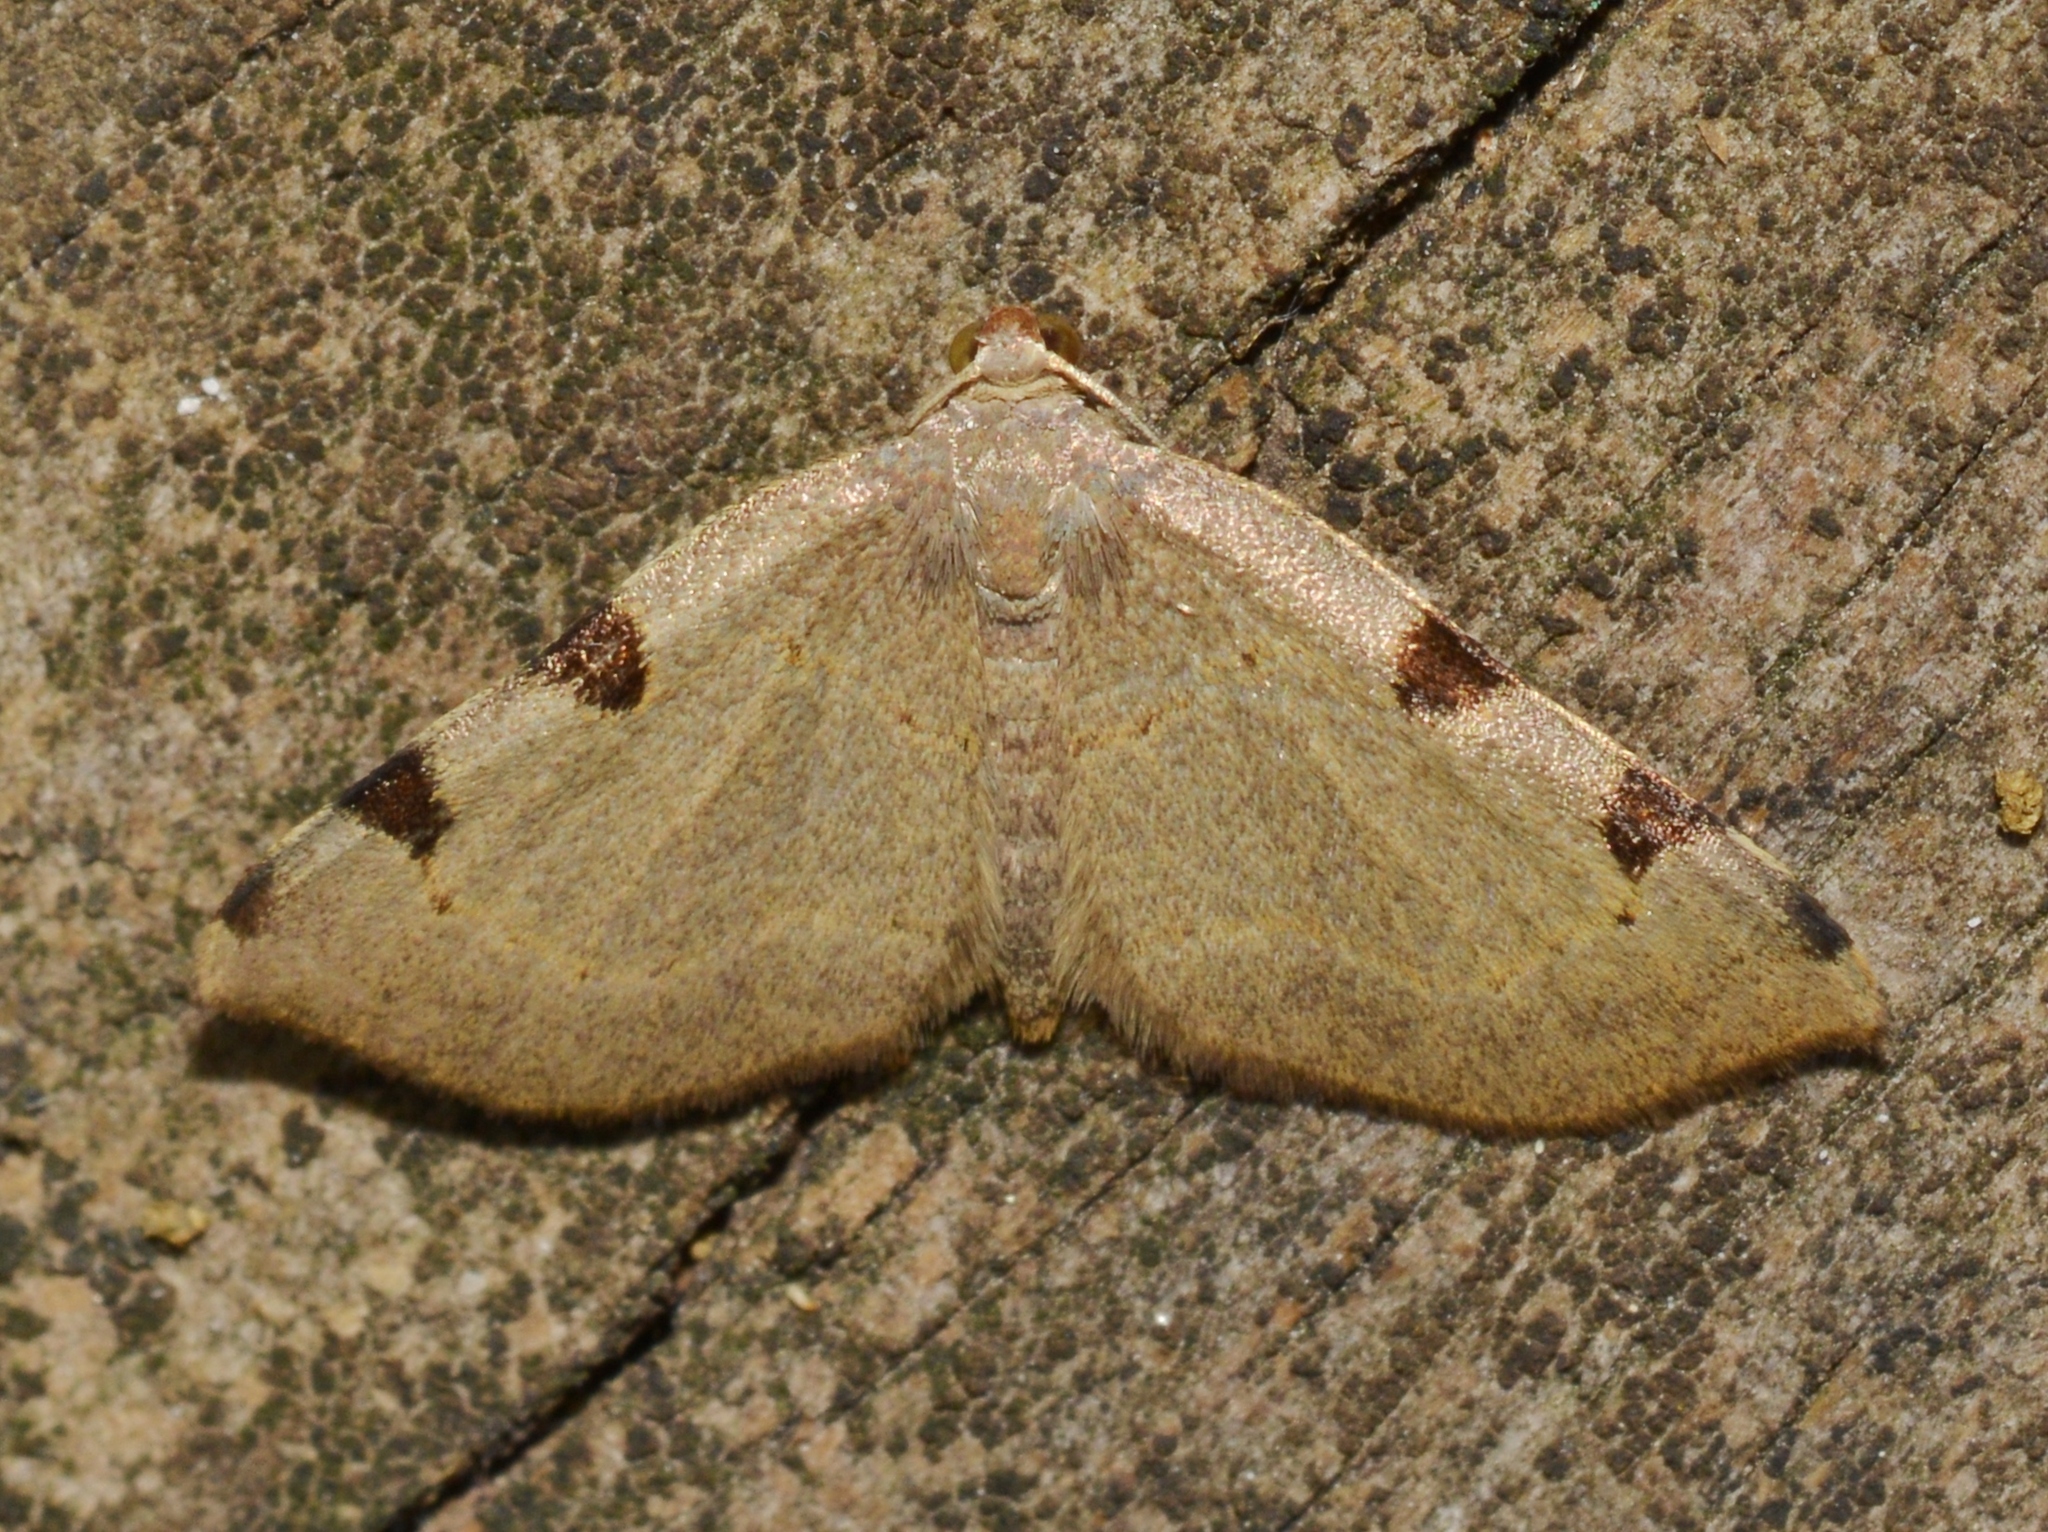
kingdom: Animalia
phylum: Arthropoda
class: Insecta
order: Lepidoptera
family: Geometridae
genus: Heterophleps
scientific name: Heterophleps triguttaria
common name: Three-spotted fillip
